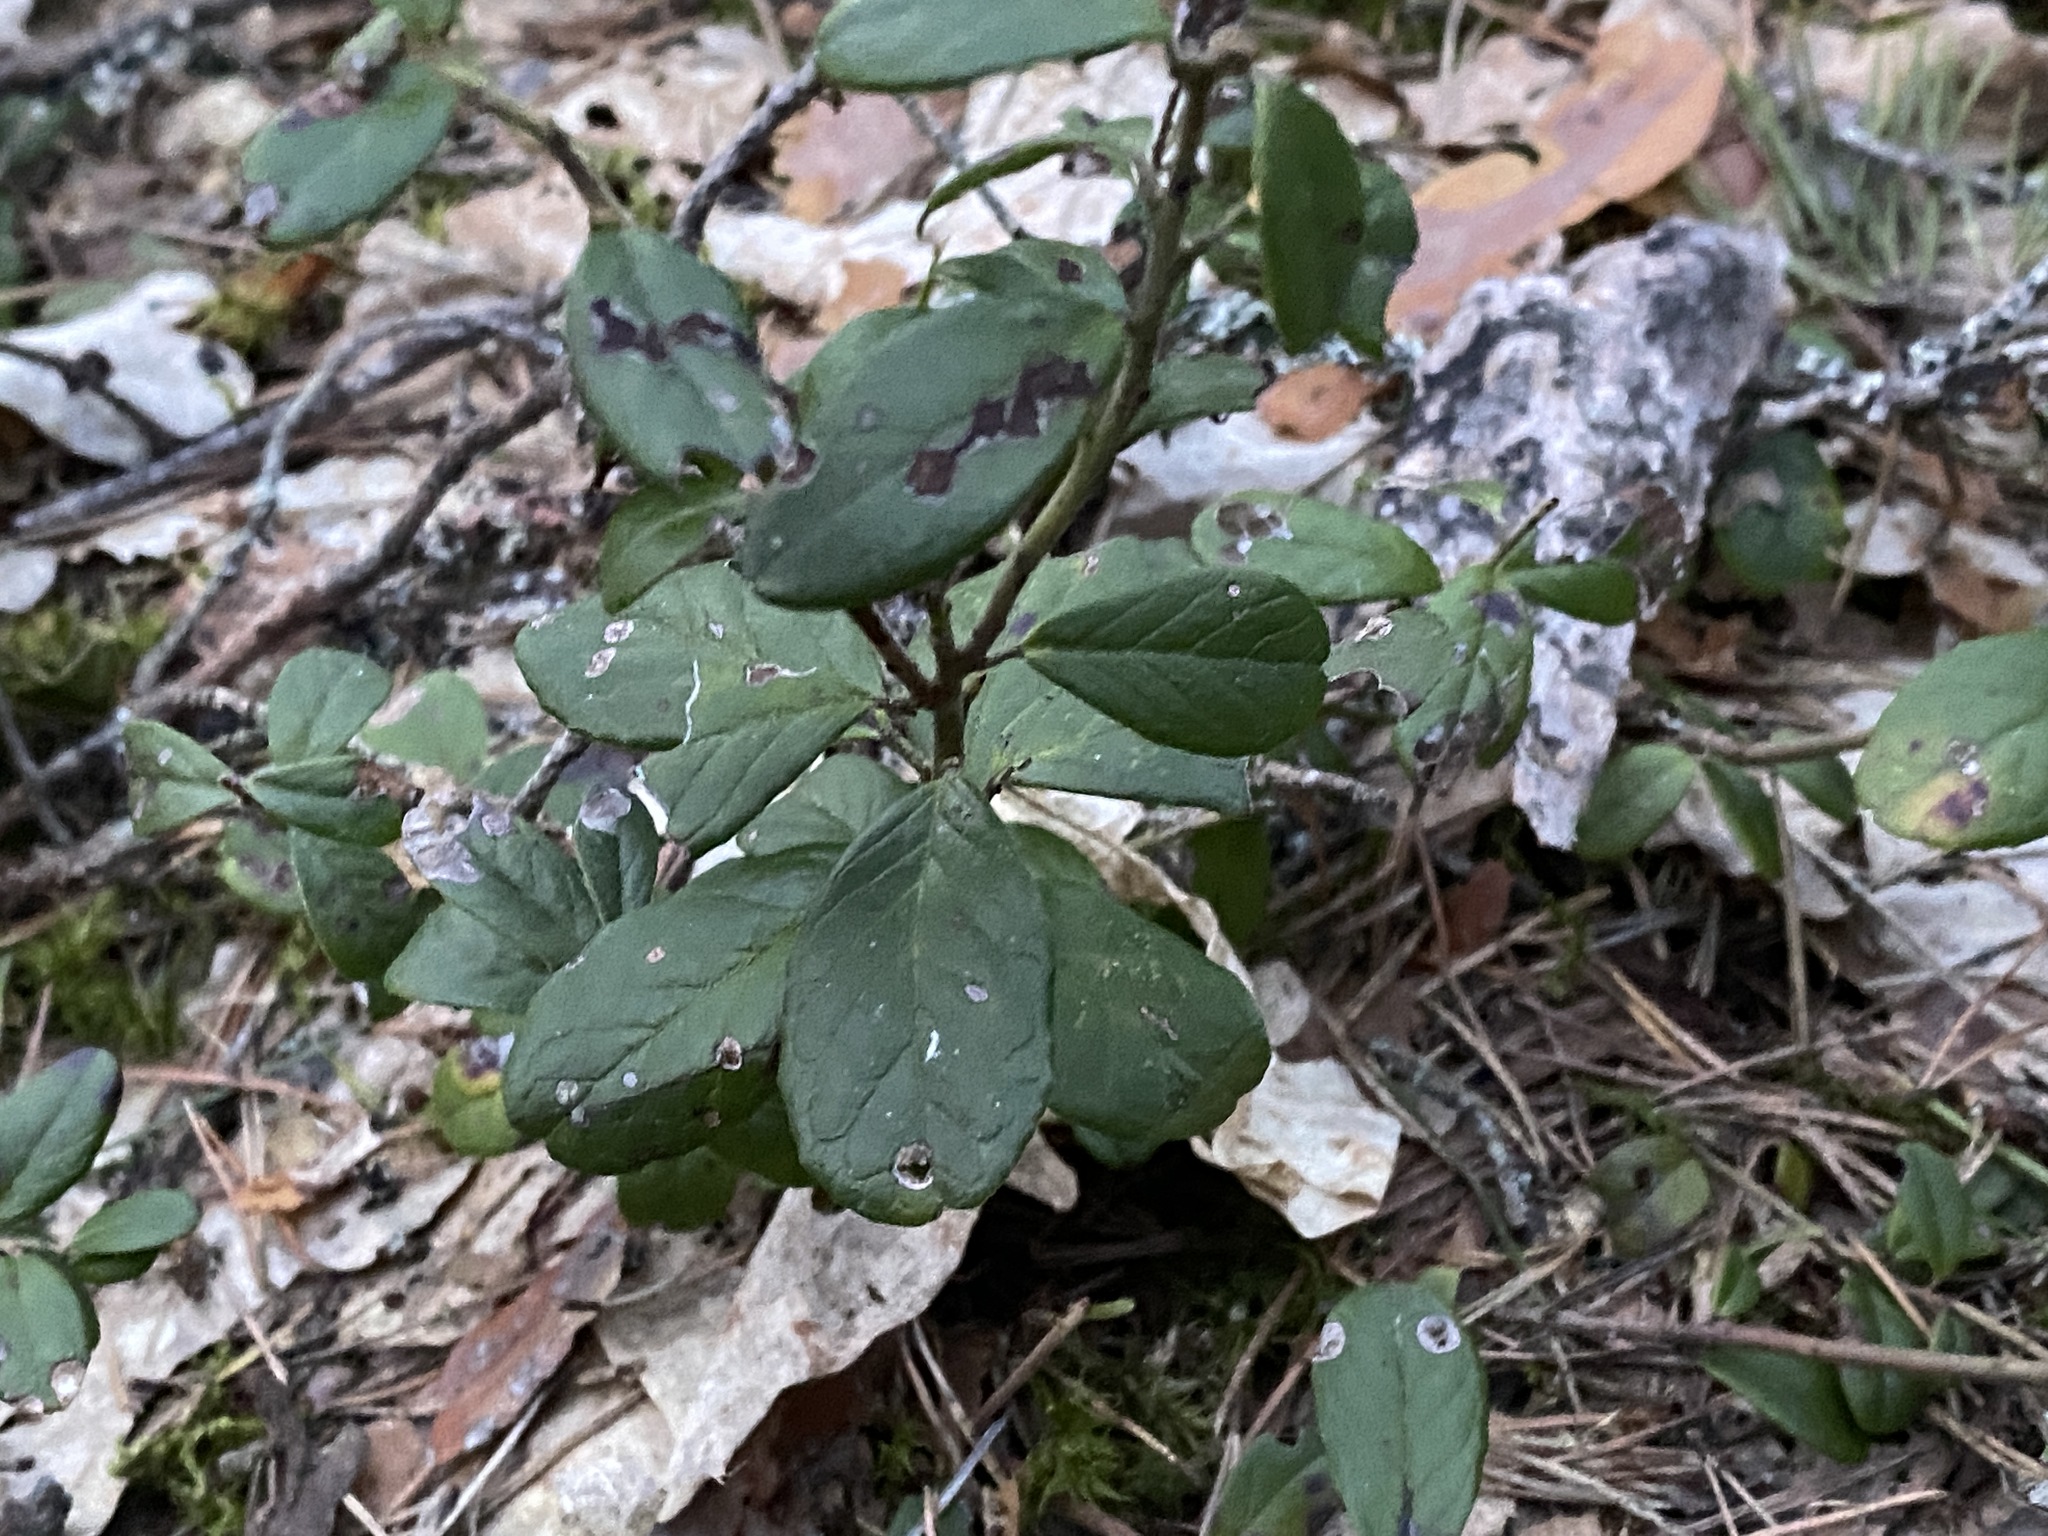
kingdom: Plantae
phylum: Tracheophyta
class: Magnoliopsida
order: Ericales
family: Ericaceae
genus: Vaccinium
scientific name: Vaccinium vitis-idaea
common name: Cowberry
